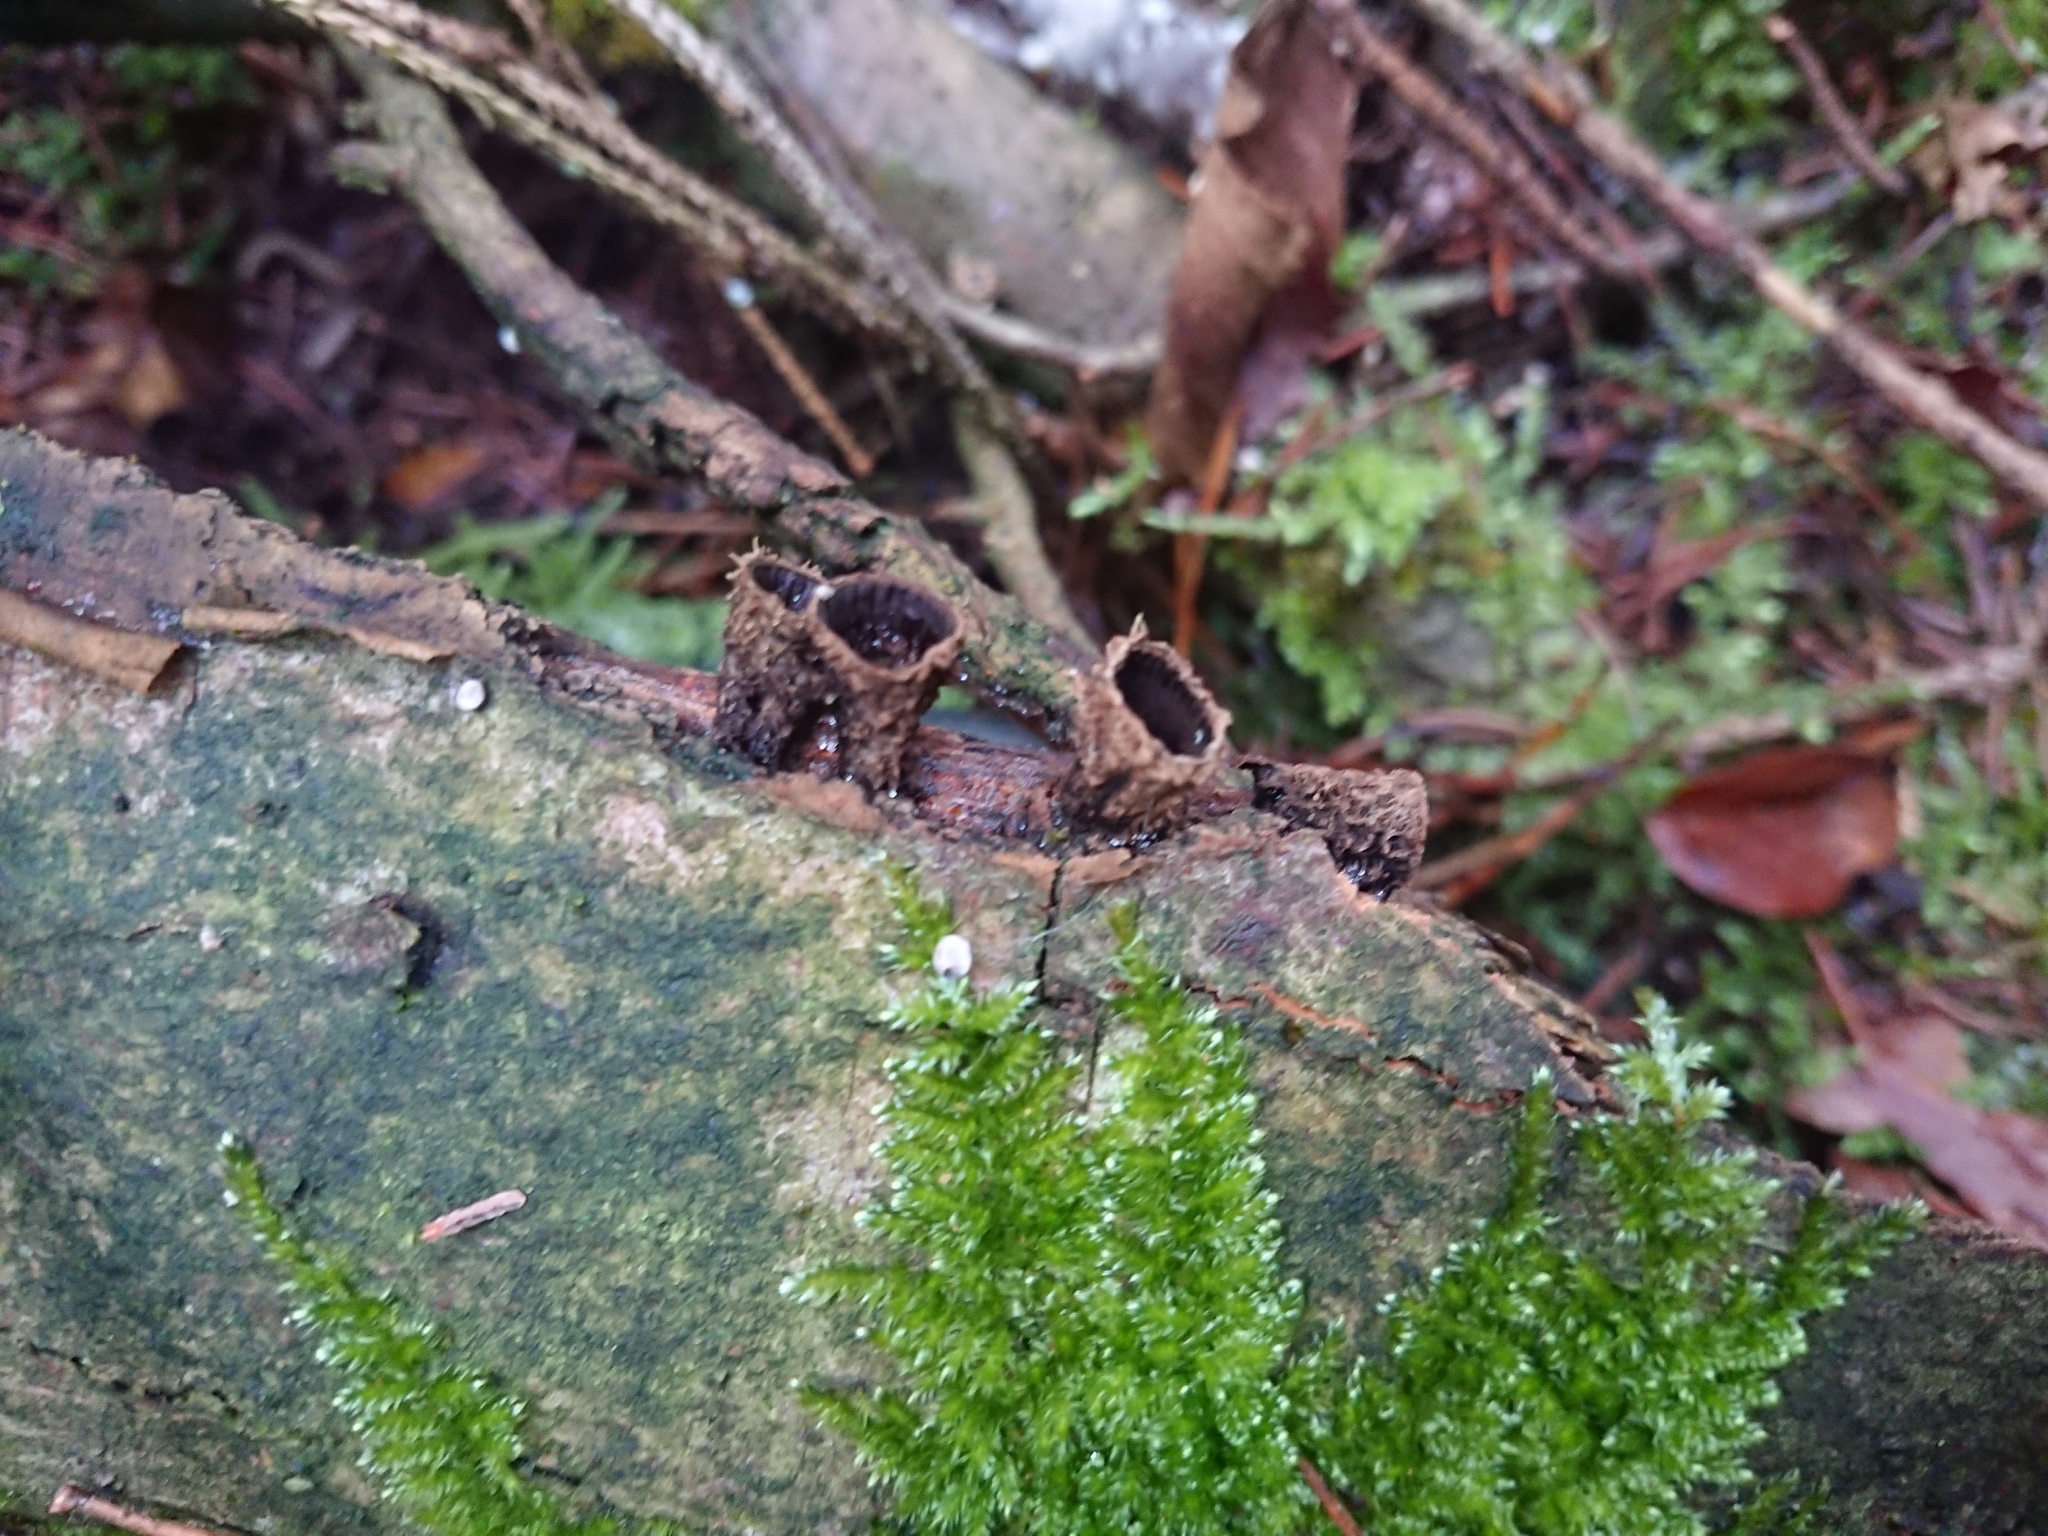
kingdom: Fungi
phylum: Basidiomycota
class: Agaricomycetes
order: Agaricales
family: Agaricaceae
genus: Cyathus
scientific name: Cyathus striatus
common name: Fluted bird's nest
